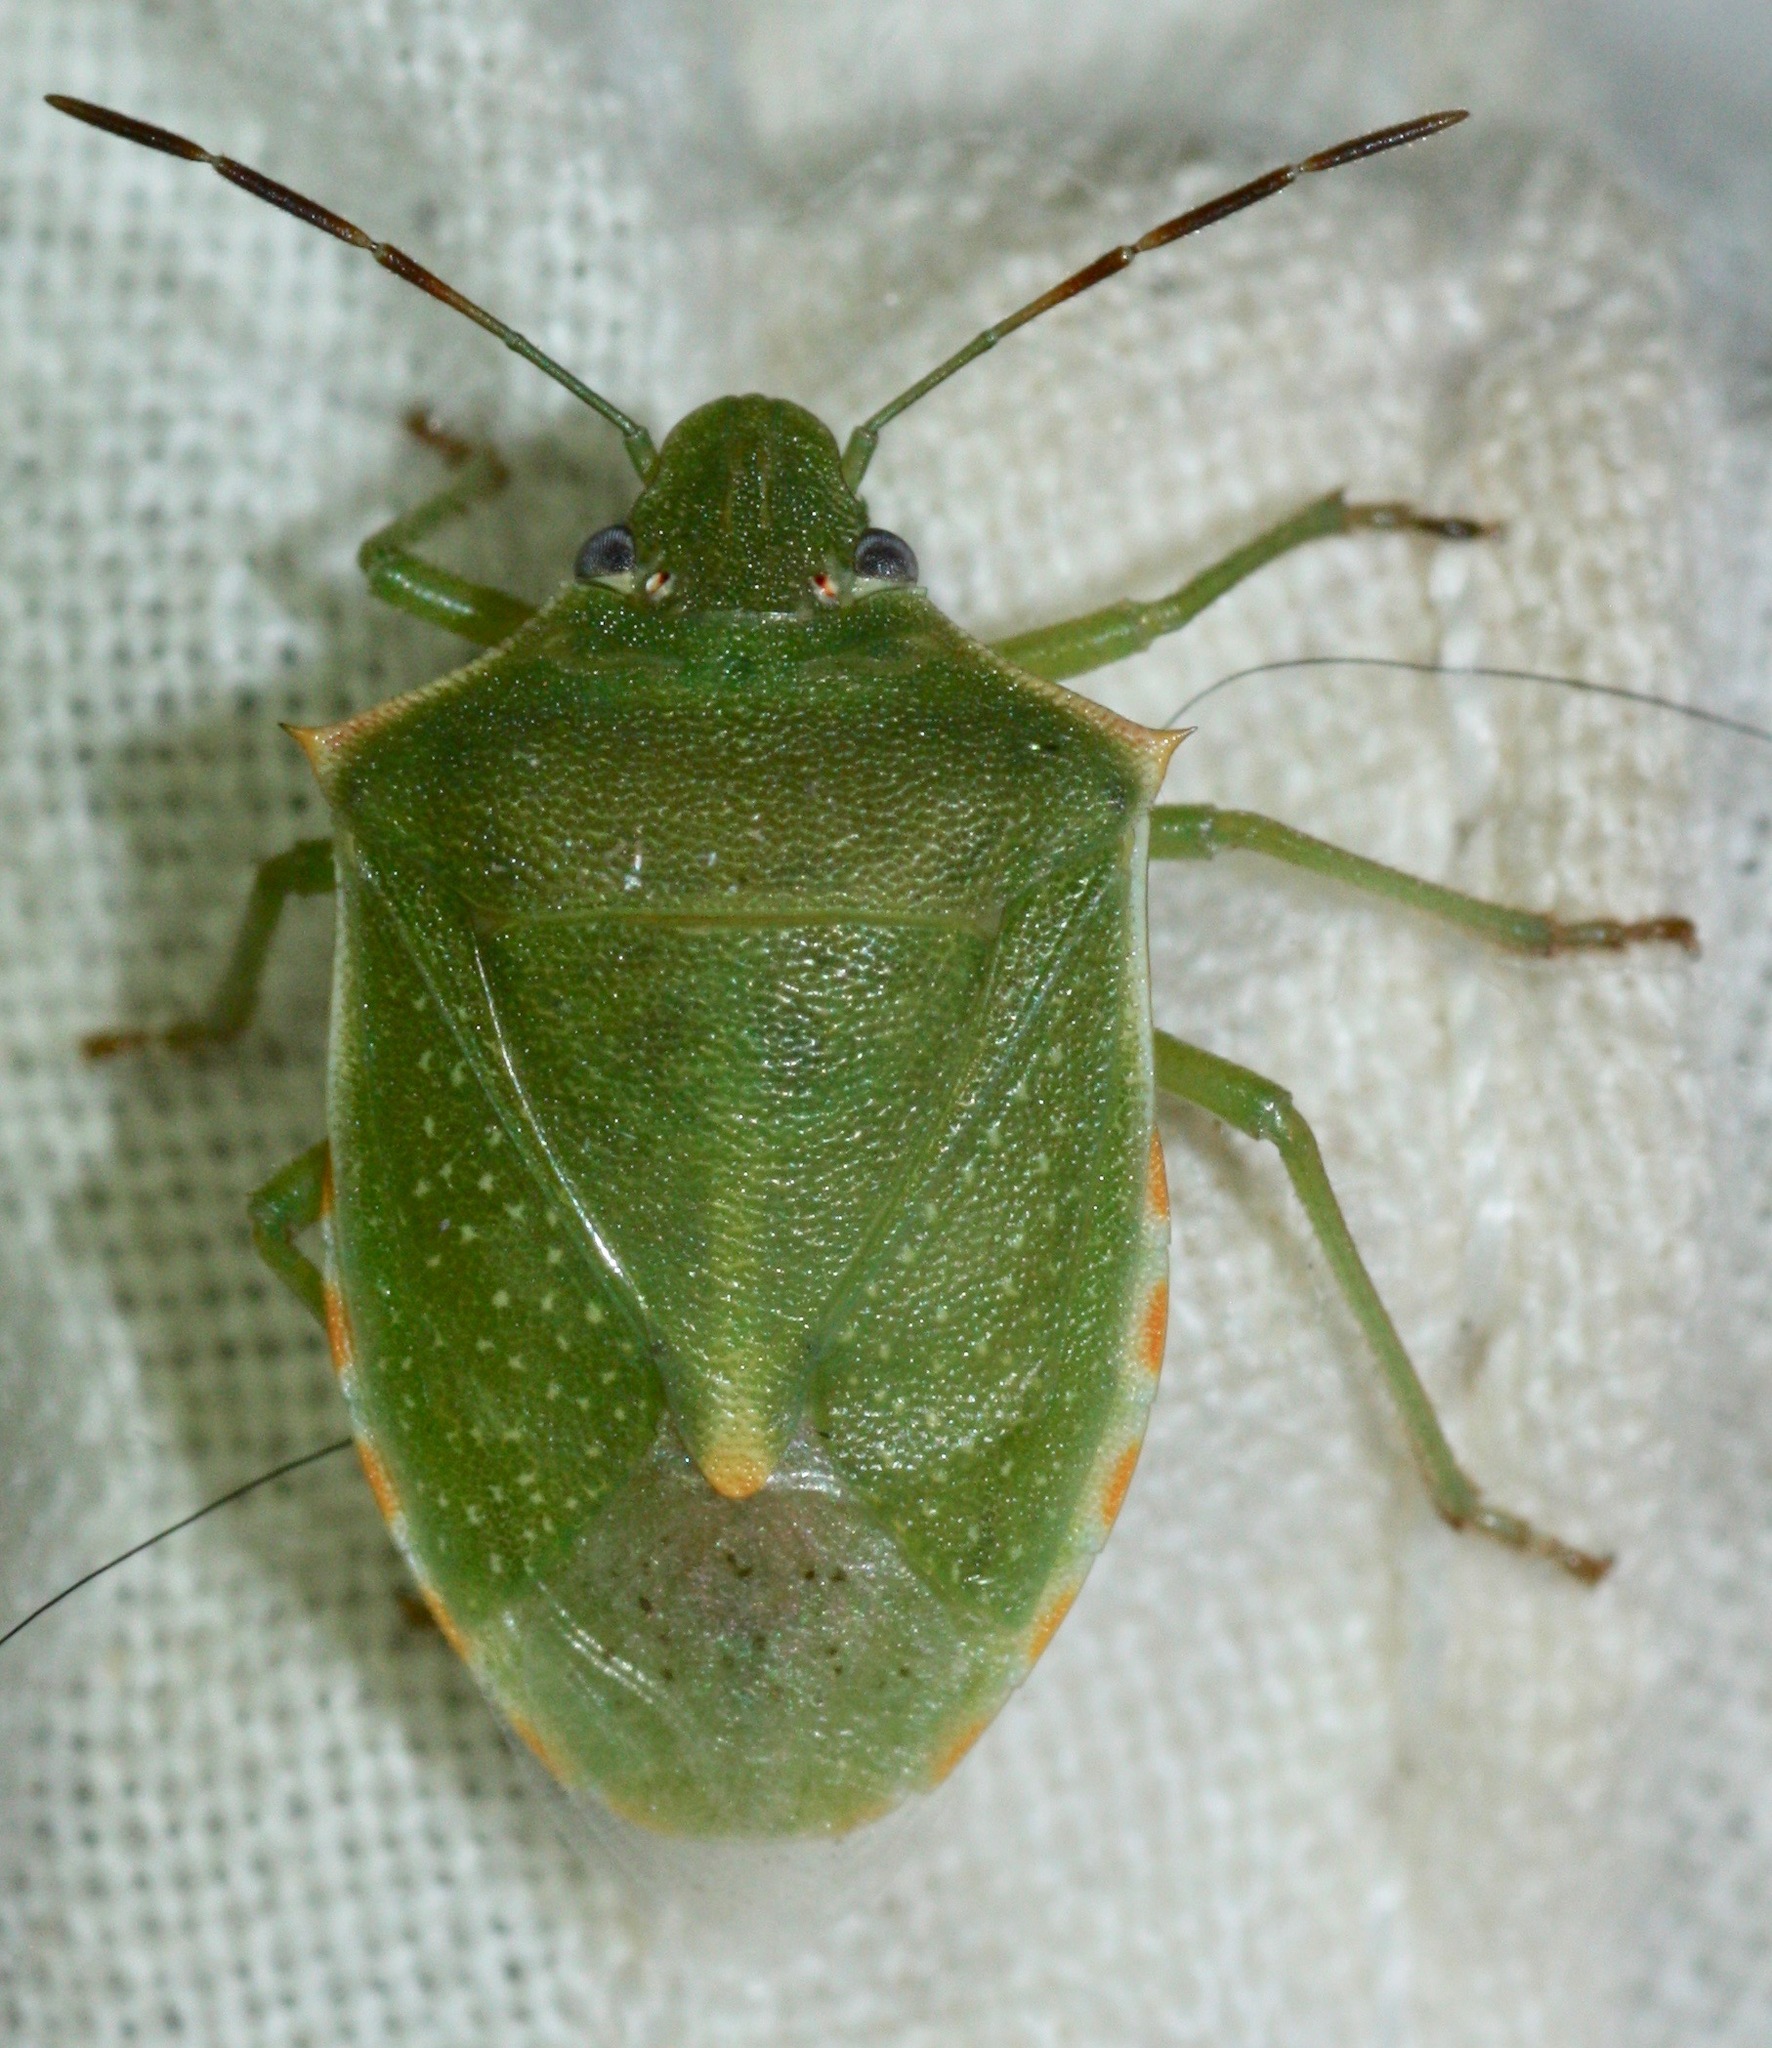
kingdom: Animalia
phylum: Arthropoda
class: Insecta
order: Hemiptera
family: Pentatomidae
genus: Thyanta
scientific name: Thyanta accerra
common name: Stink bug
